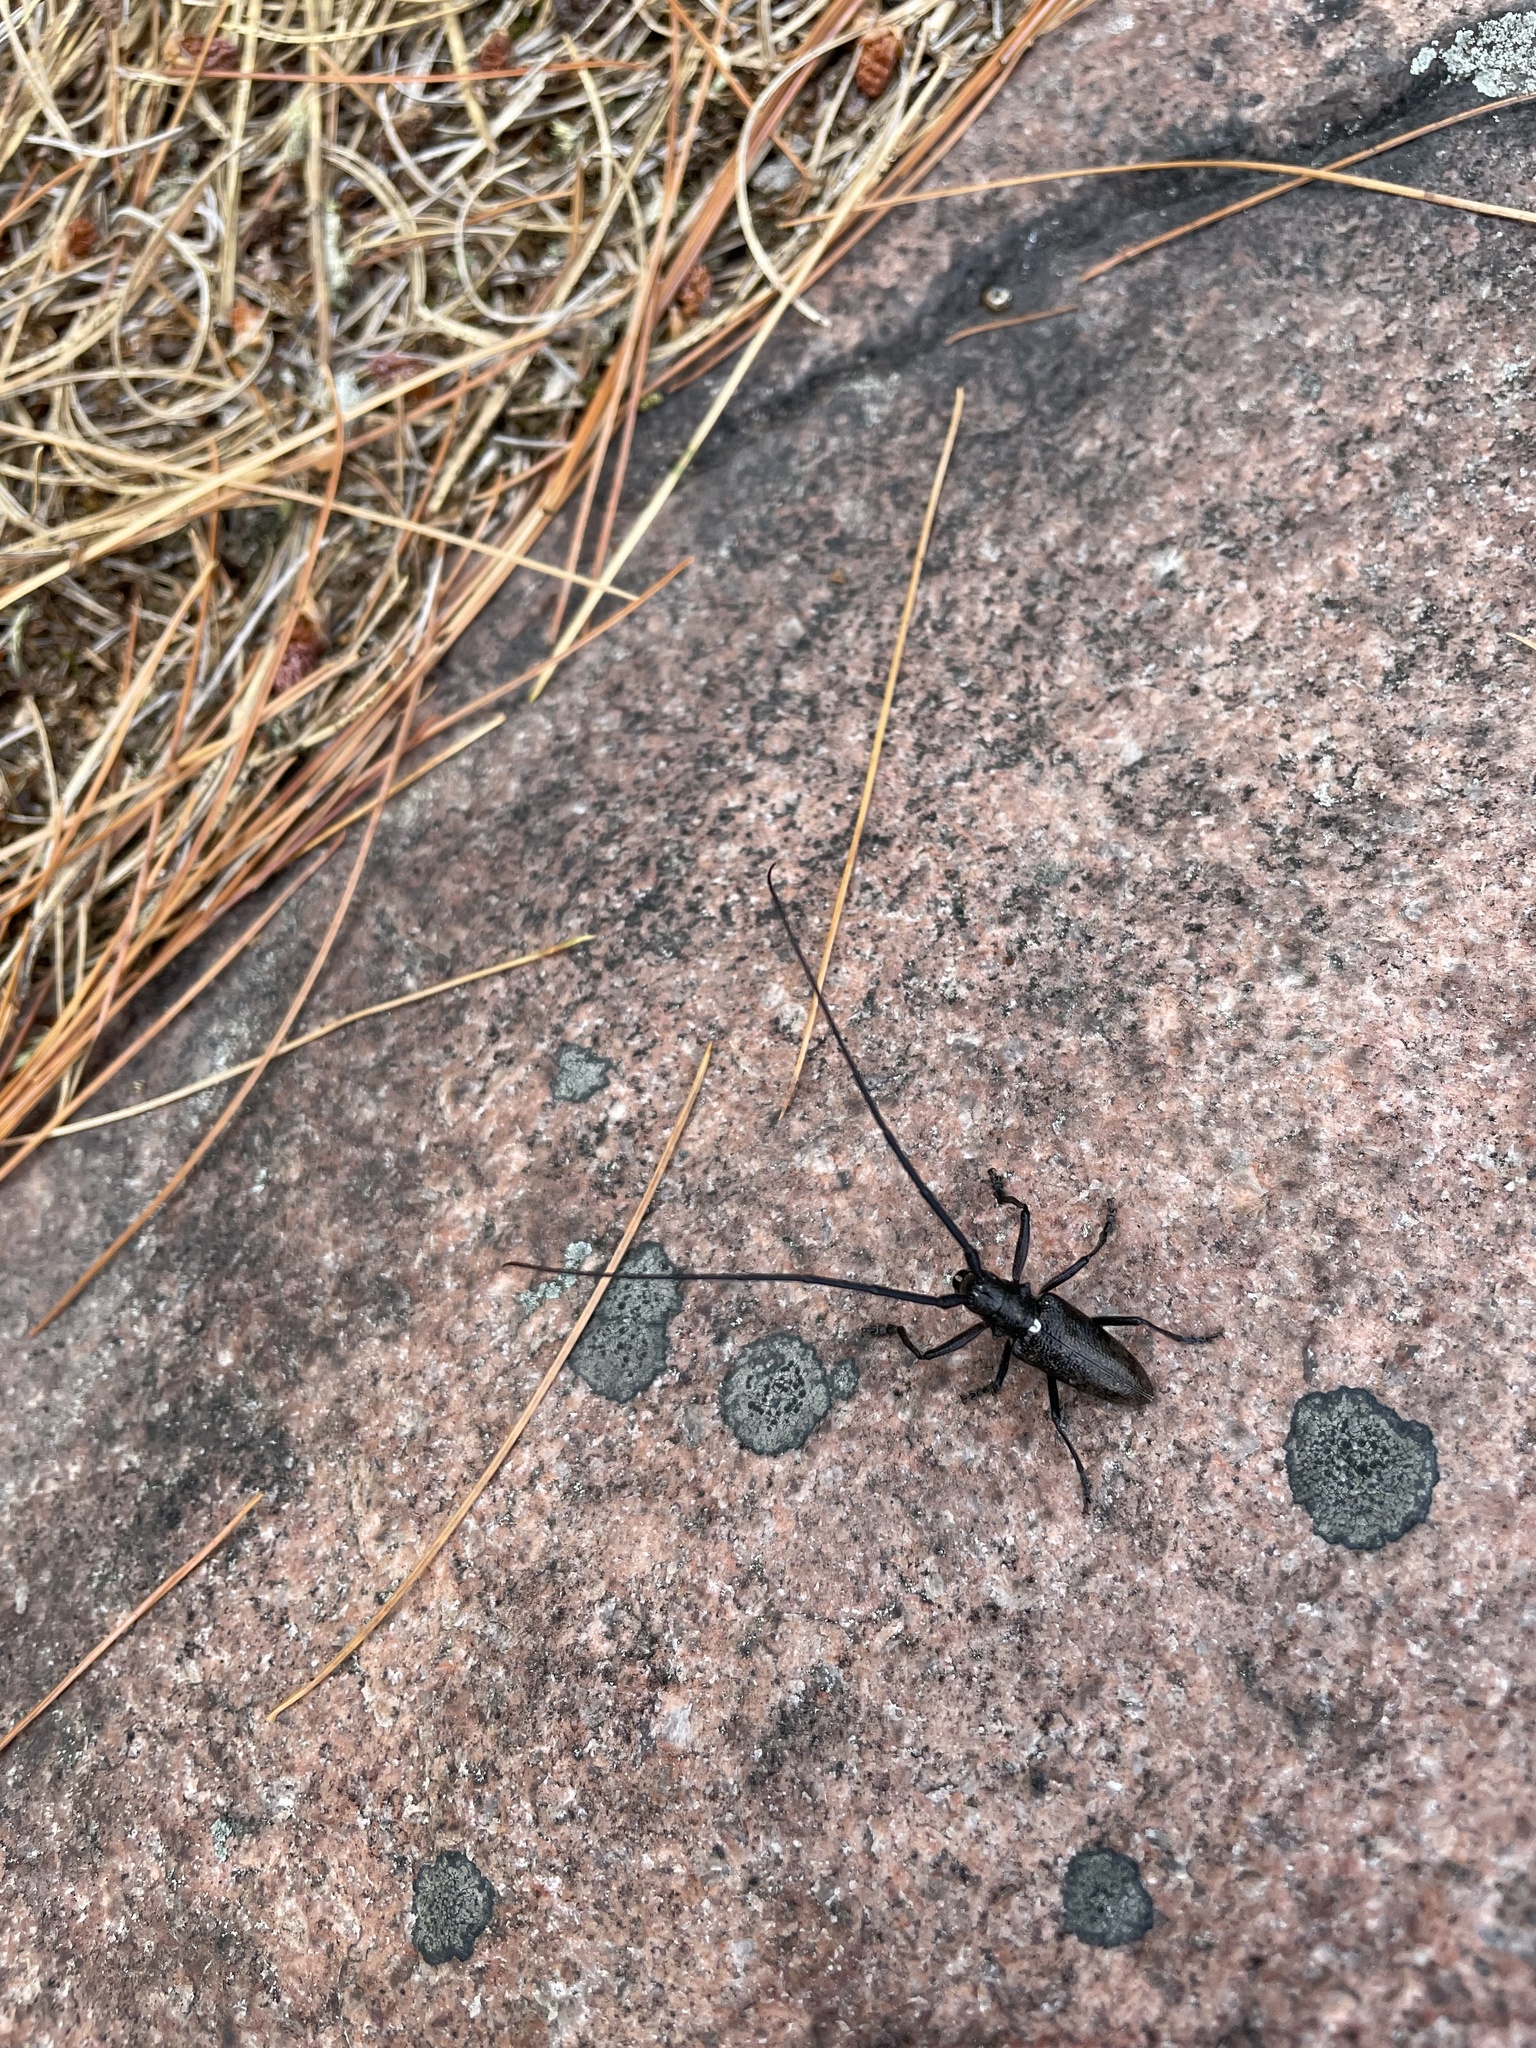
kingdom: Animalia
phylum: Arthropoda
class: Insecta
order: Coleoptera
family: Cerambycidae
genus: Monochamus
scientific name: Monochamus scutellatus
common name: White-spotted sawyer beetle
